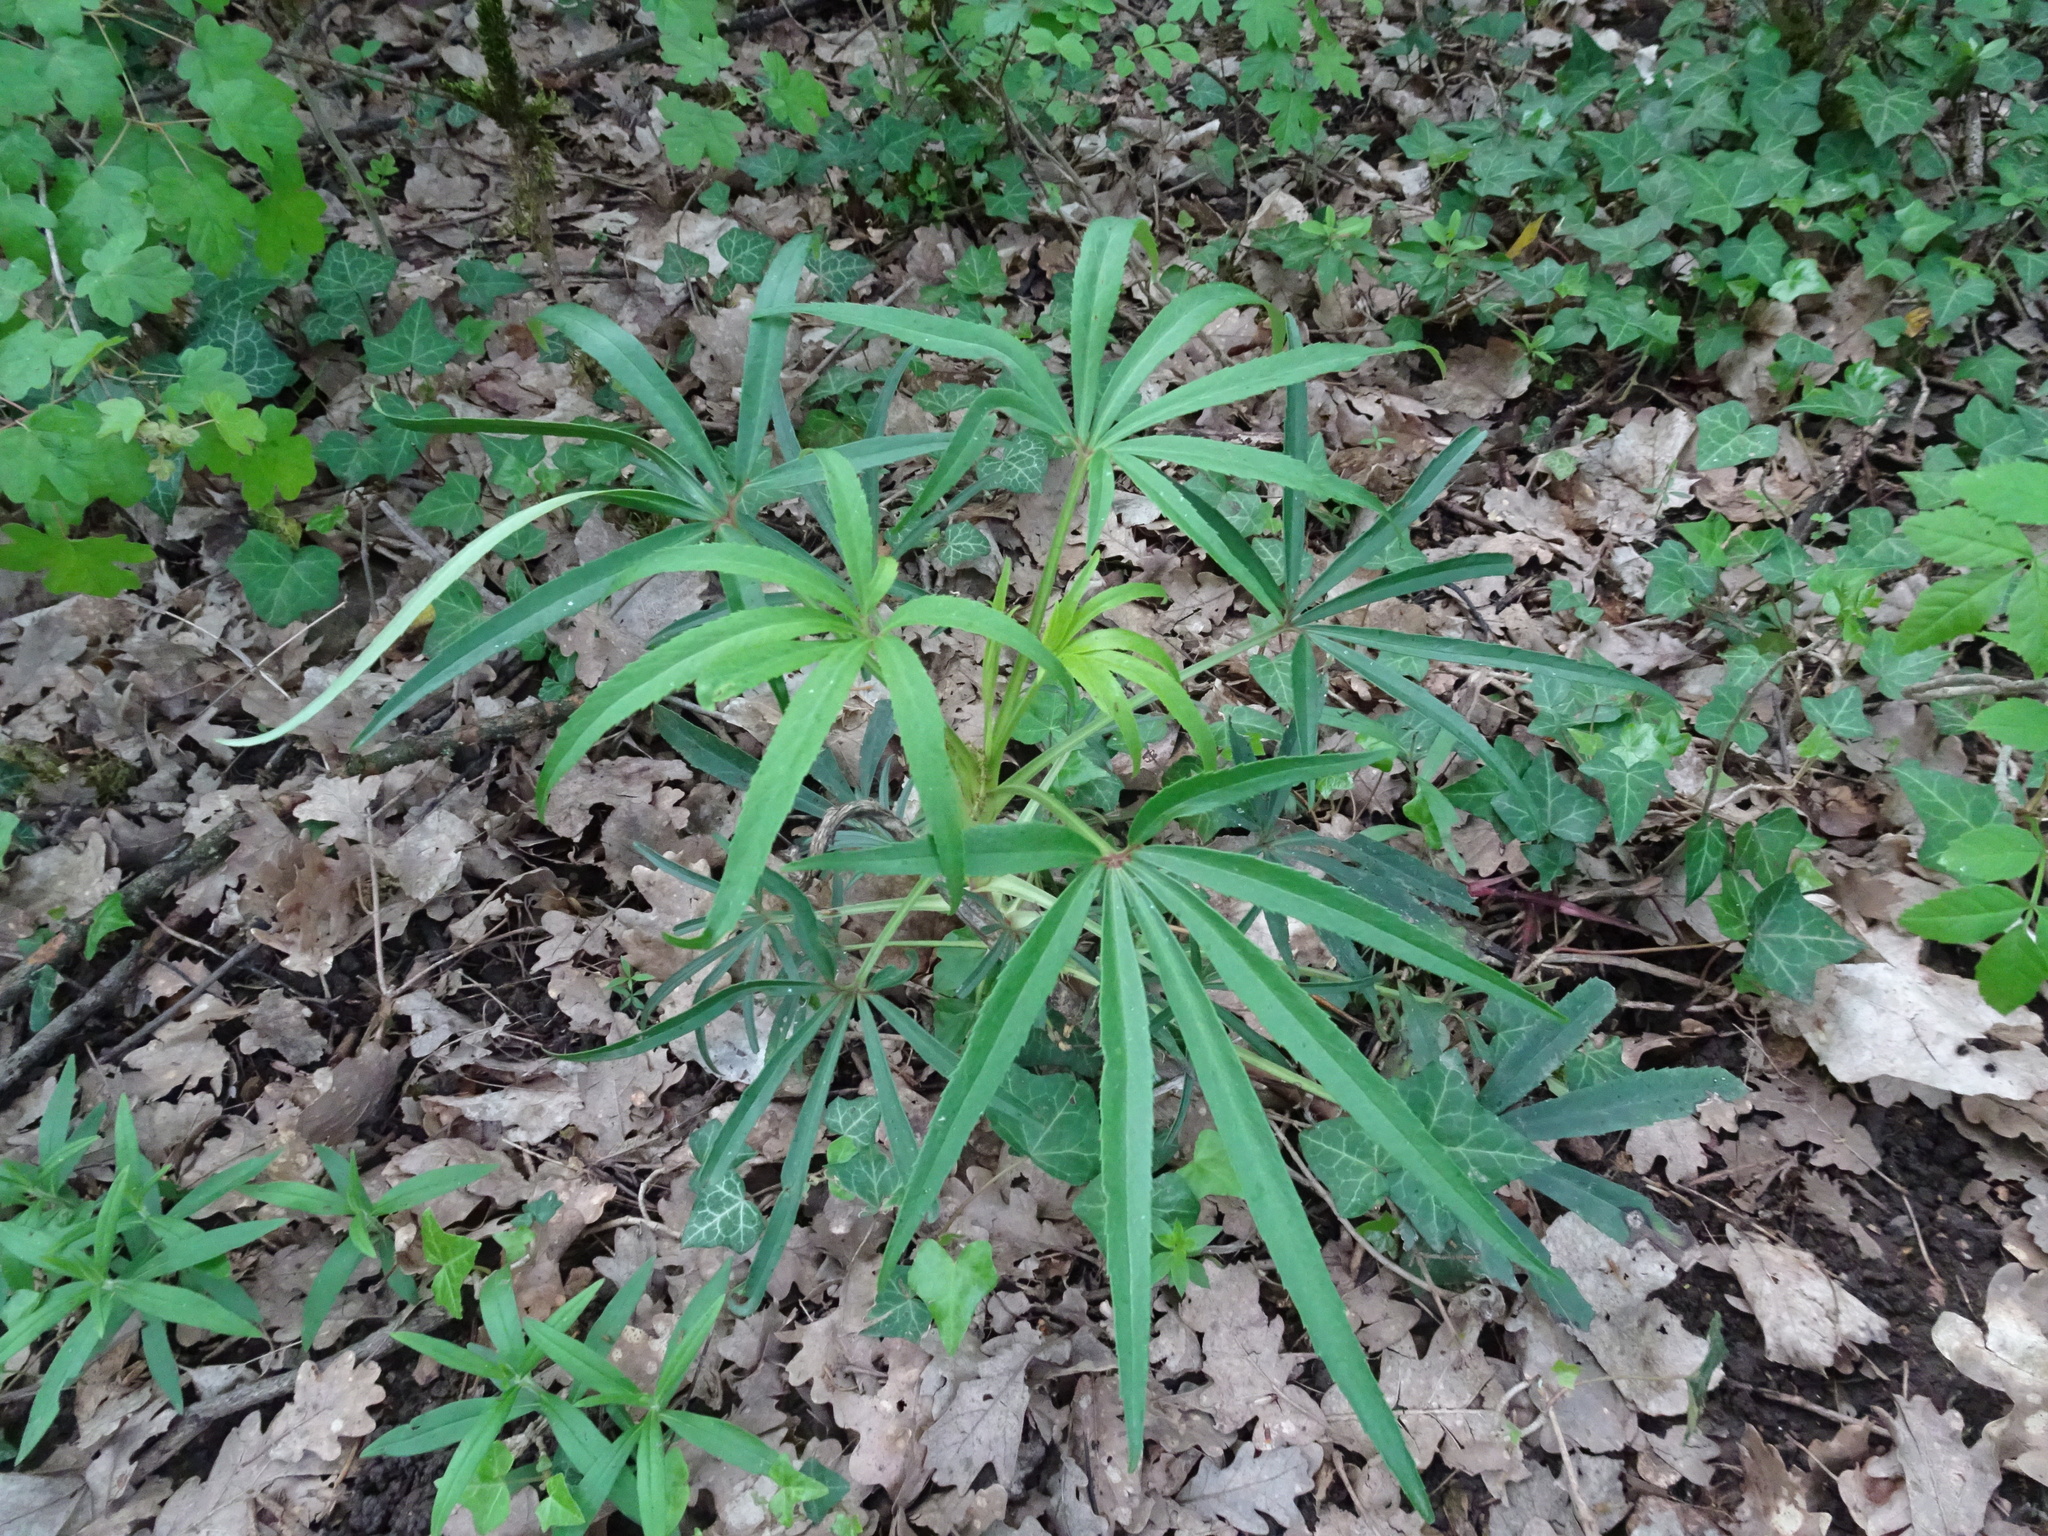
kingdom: Plantae
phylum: Tracheophyta
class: Magnoliopsida
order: Ranunculales
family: Ranunculaceae
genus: Helleborus
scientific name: Helleborus foetidus
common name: Stinking hellebore
